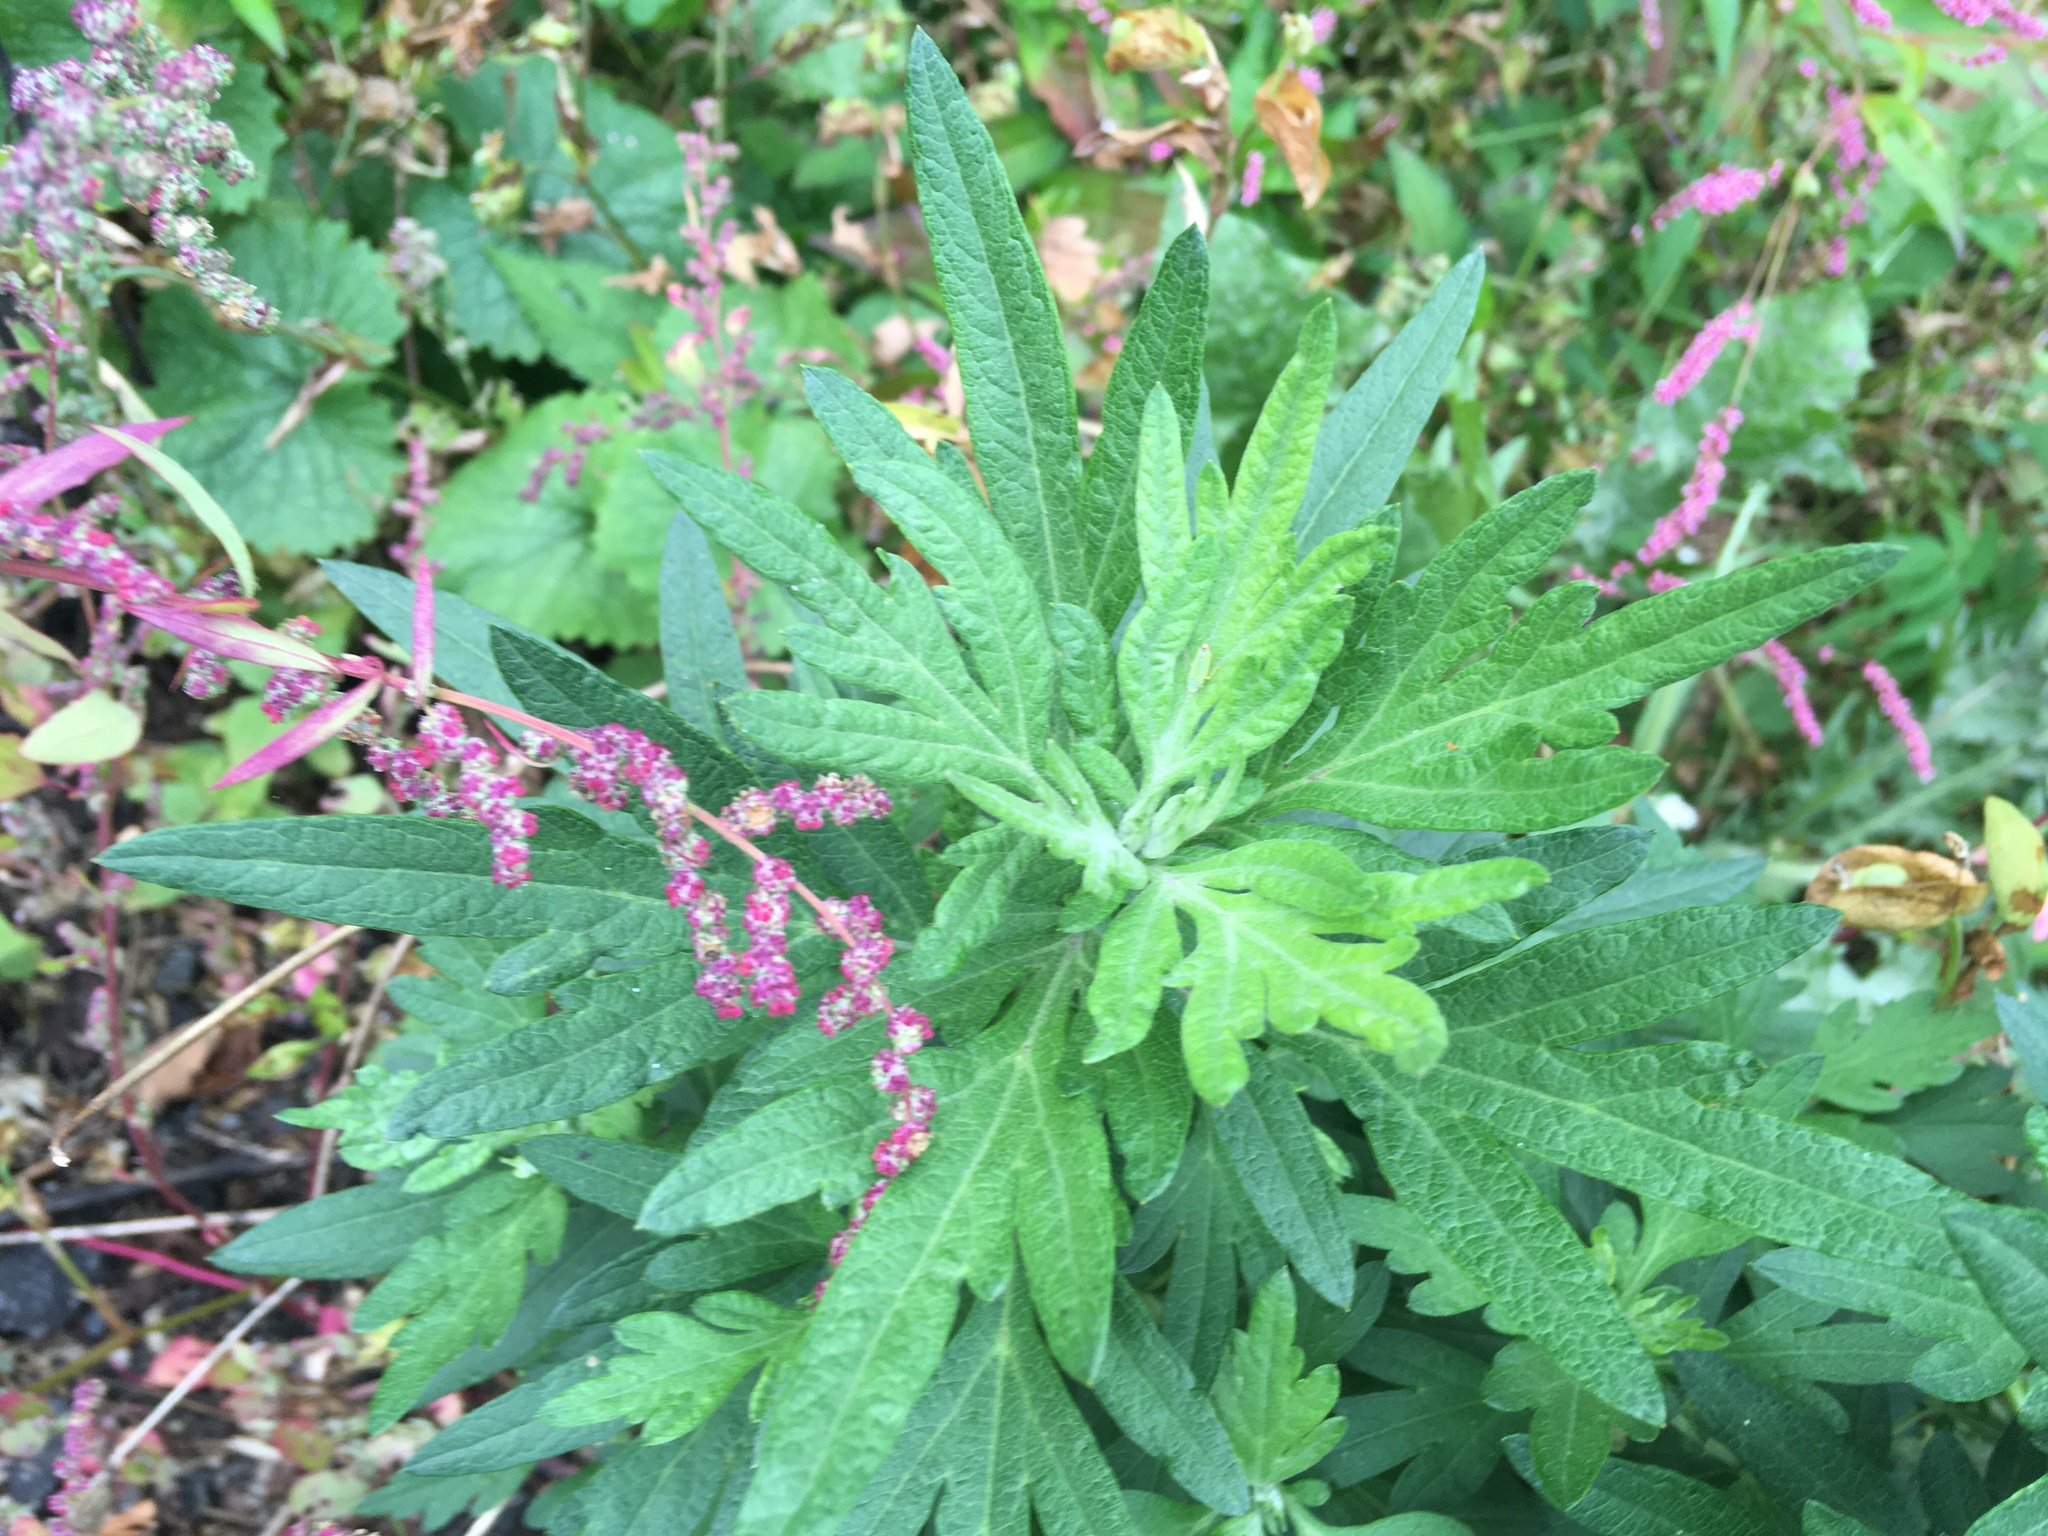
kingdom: Plantae
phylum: Tracheophyta
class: Magnoliopsida
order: Asterales
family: Asteraceae
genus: Artemisia
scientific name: Artemisia vulgaris
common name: Mugwort
